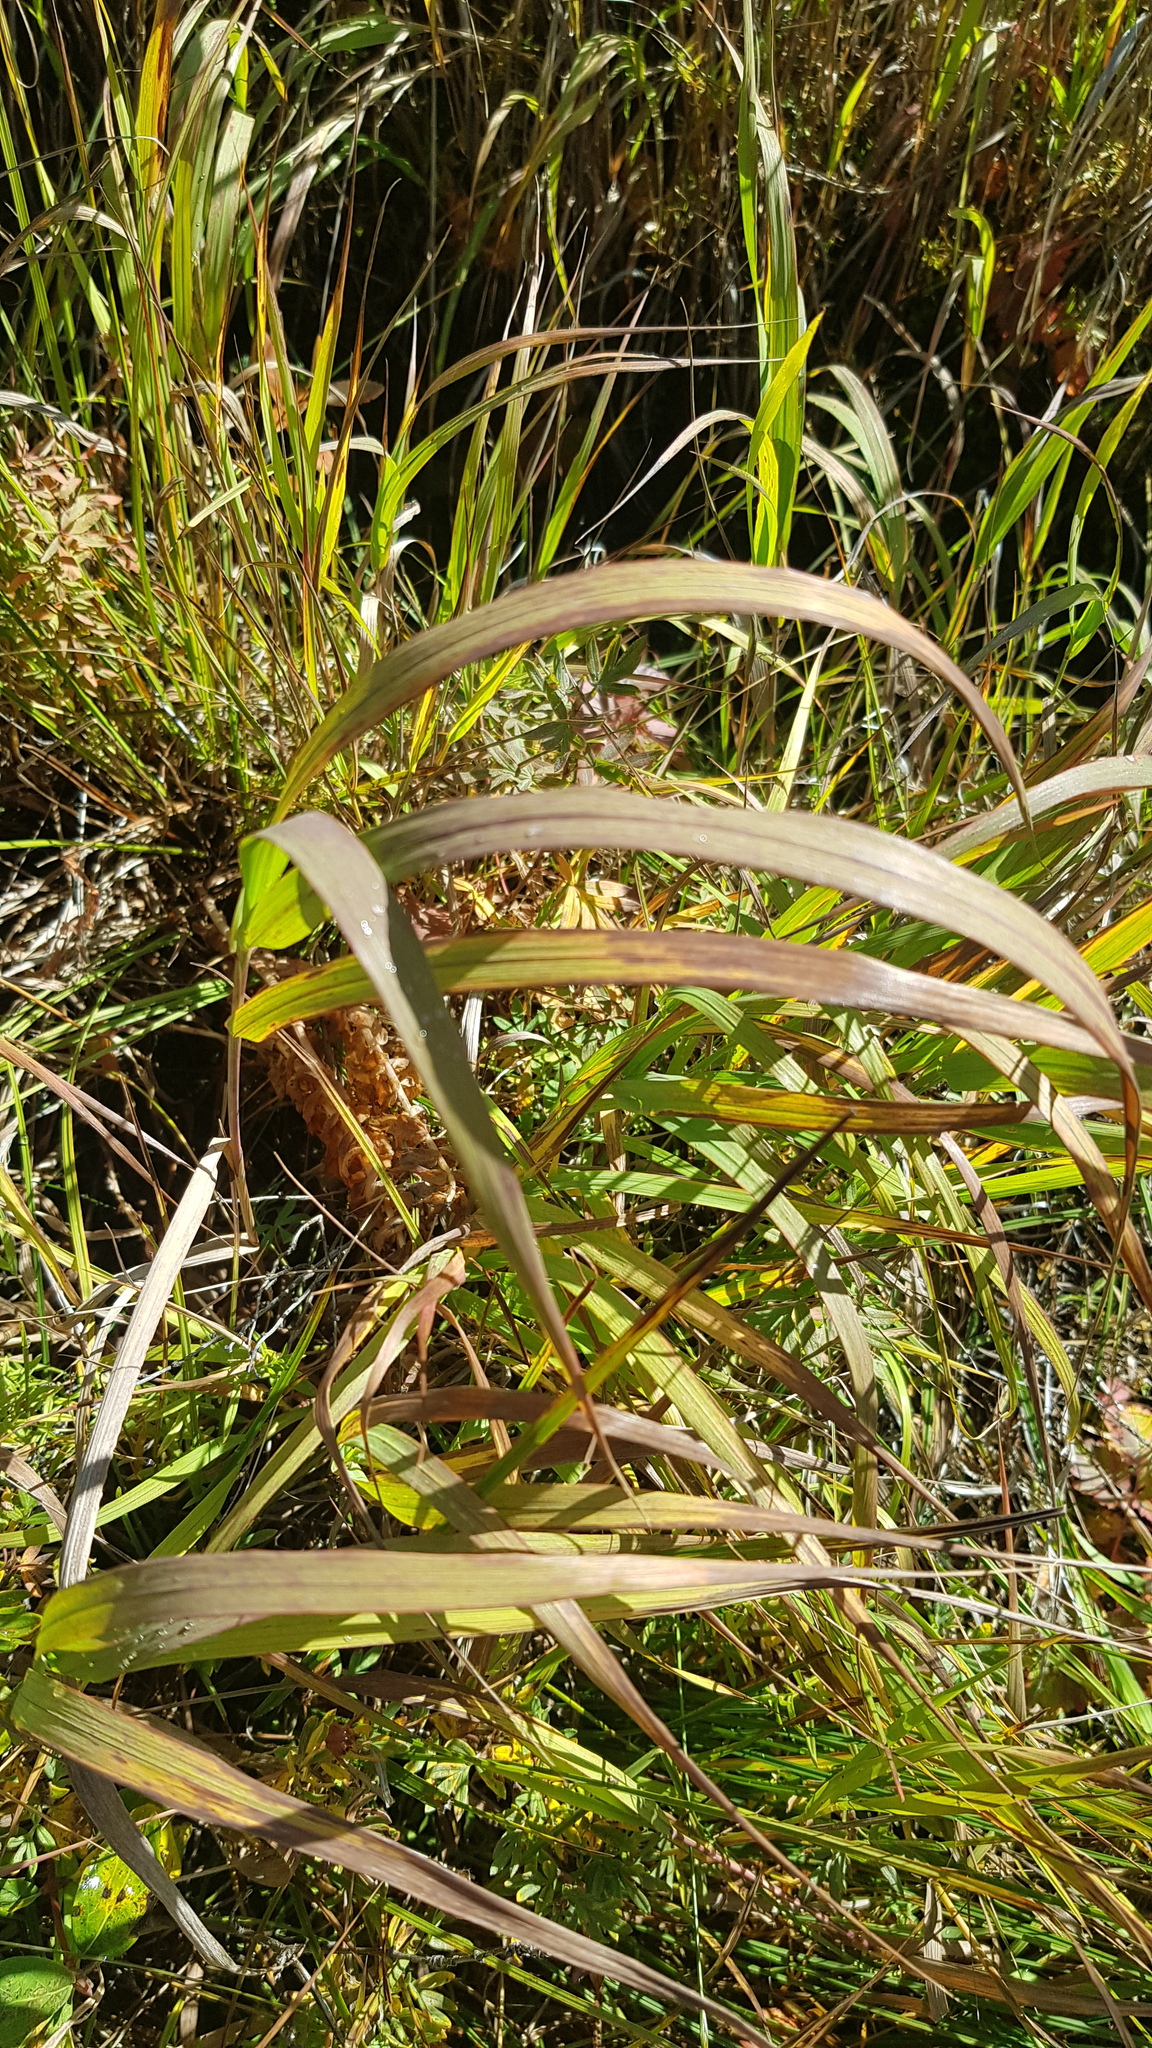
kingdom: Plantae
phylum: Tracheophyta
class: Liliopsida
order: Acorales
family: Acoraceae
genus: Acorus
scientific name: Acorus calamus
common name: Sweet-flag
